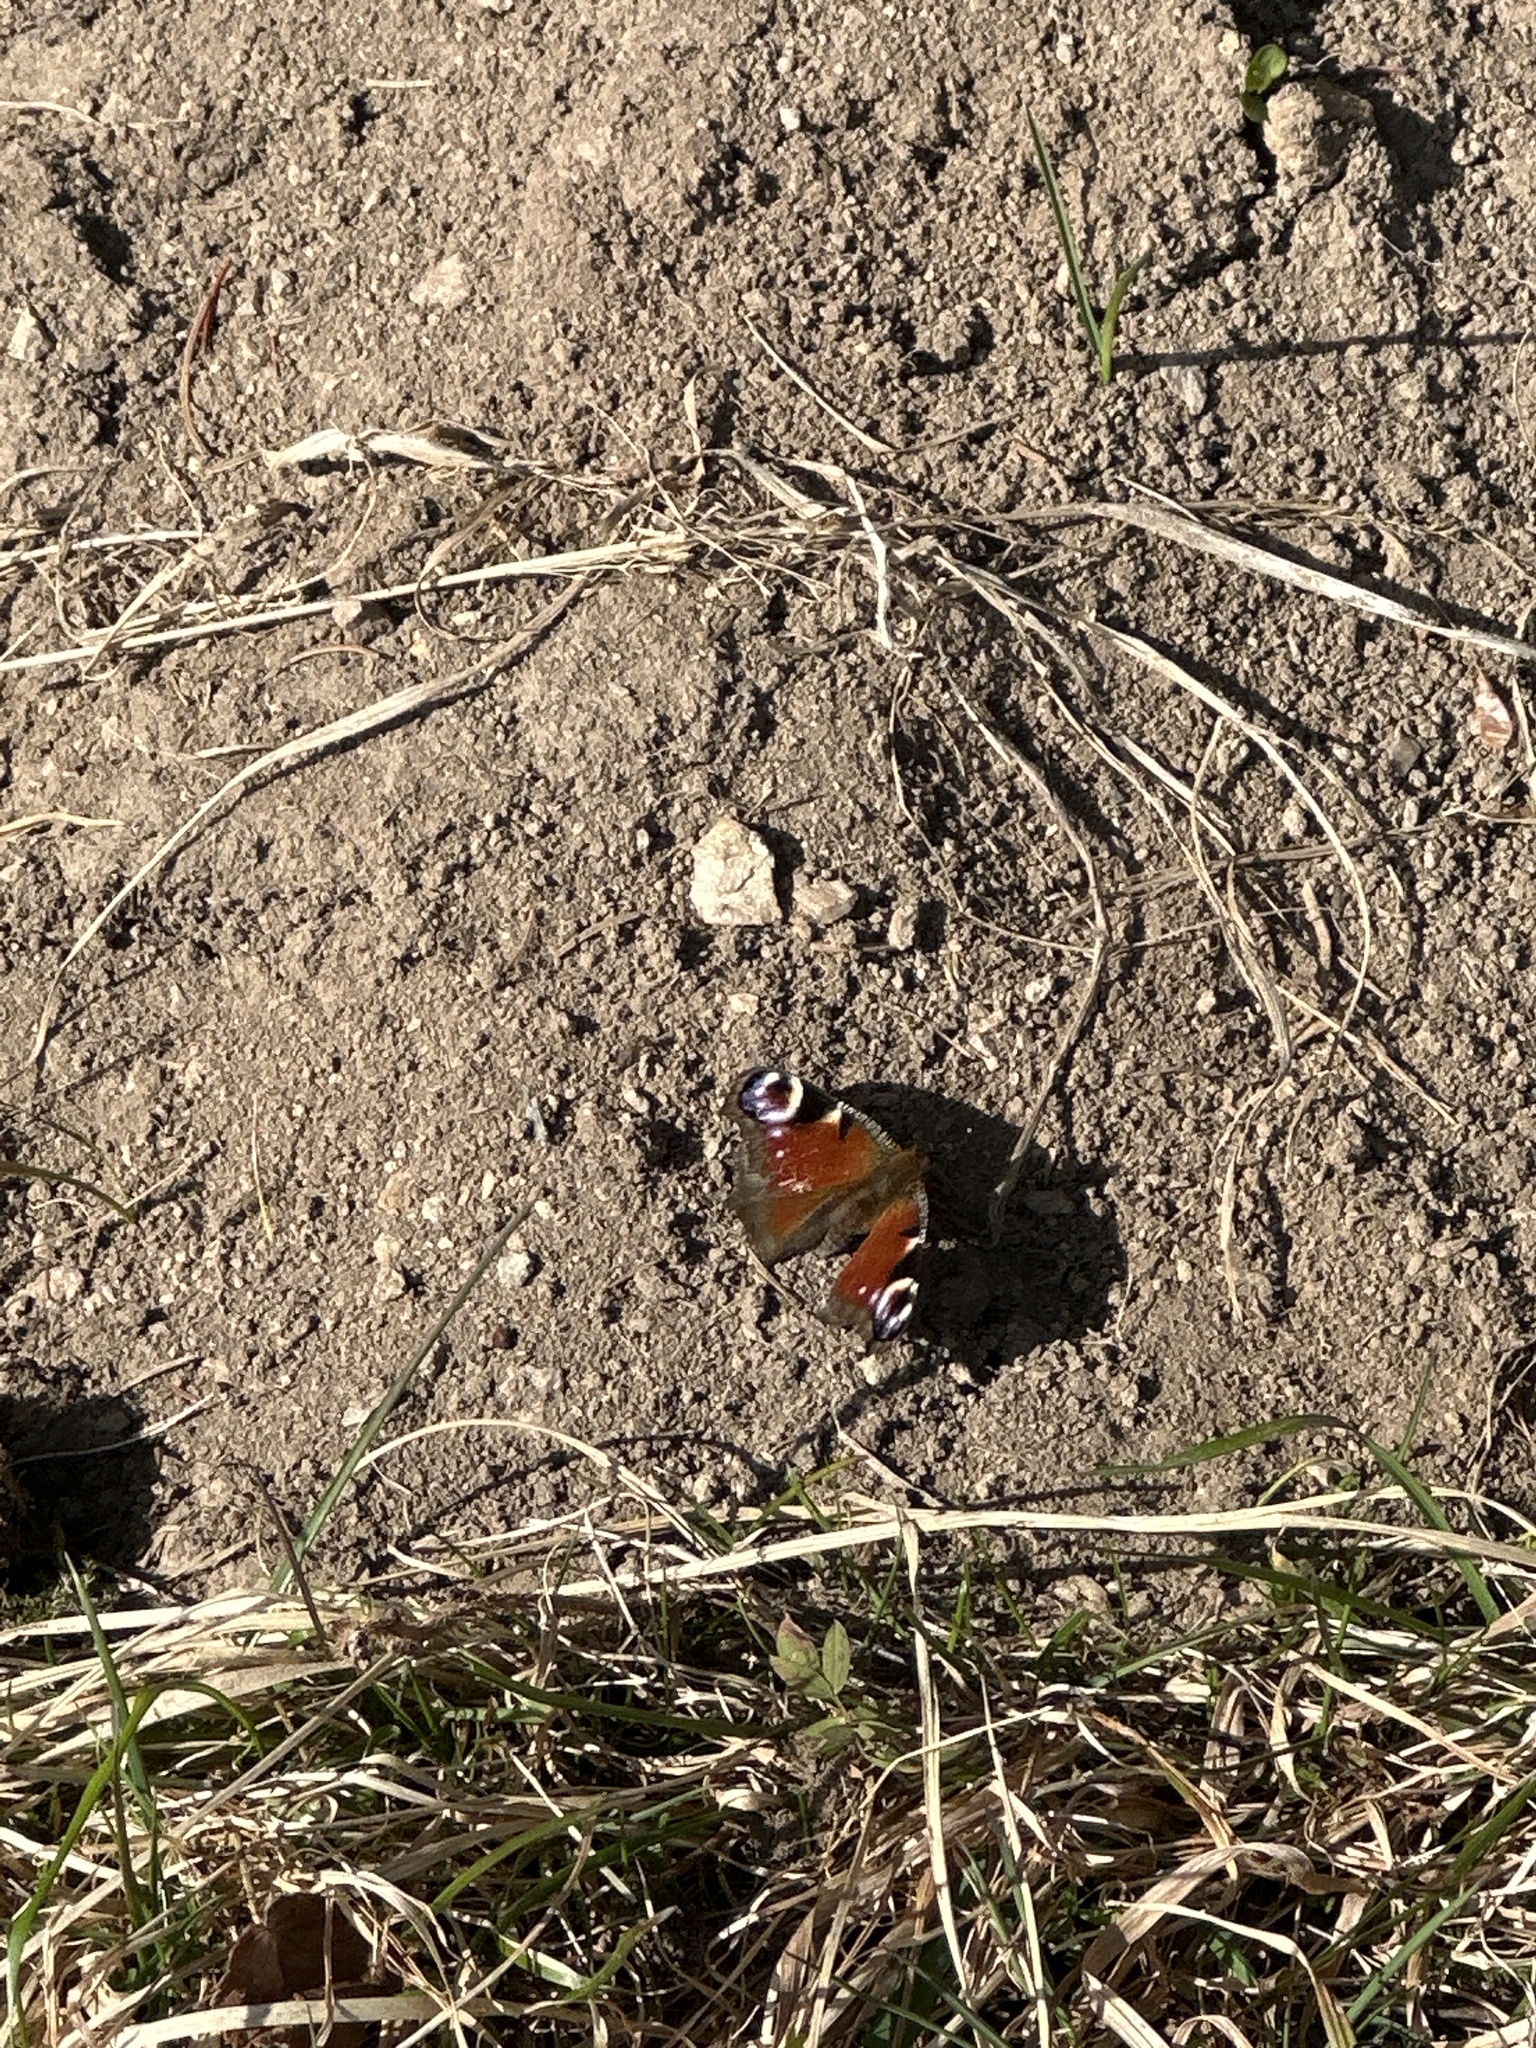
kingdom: Animalia
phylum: Arthropoda
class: Insecta
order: Lepidoptera
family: Nymphalidae
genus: Aglais
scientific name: Aglais io
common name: Peacock
